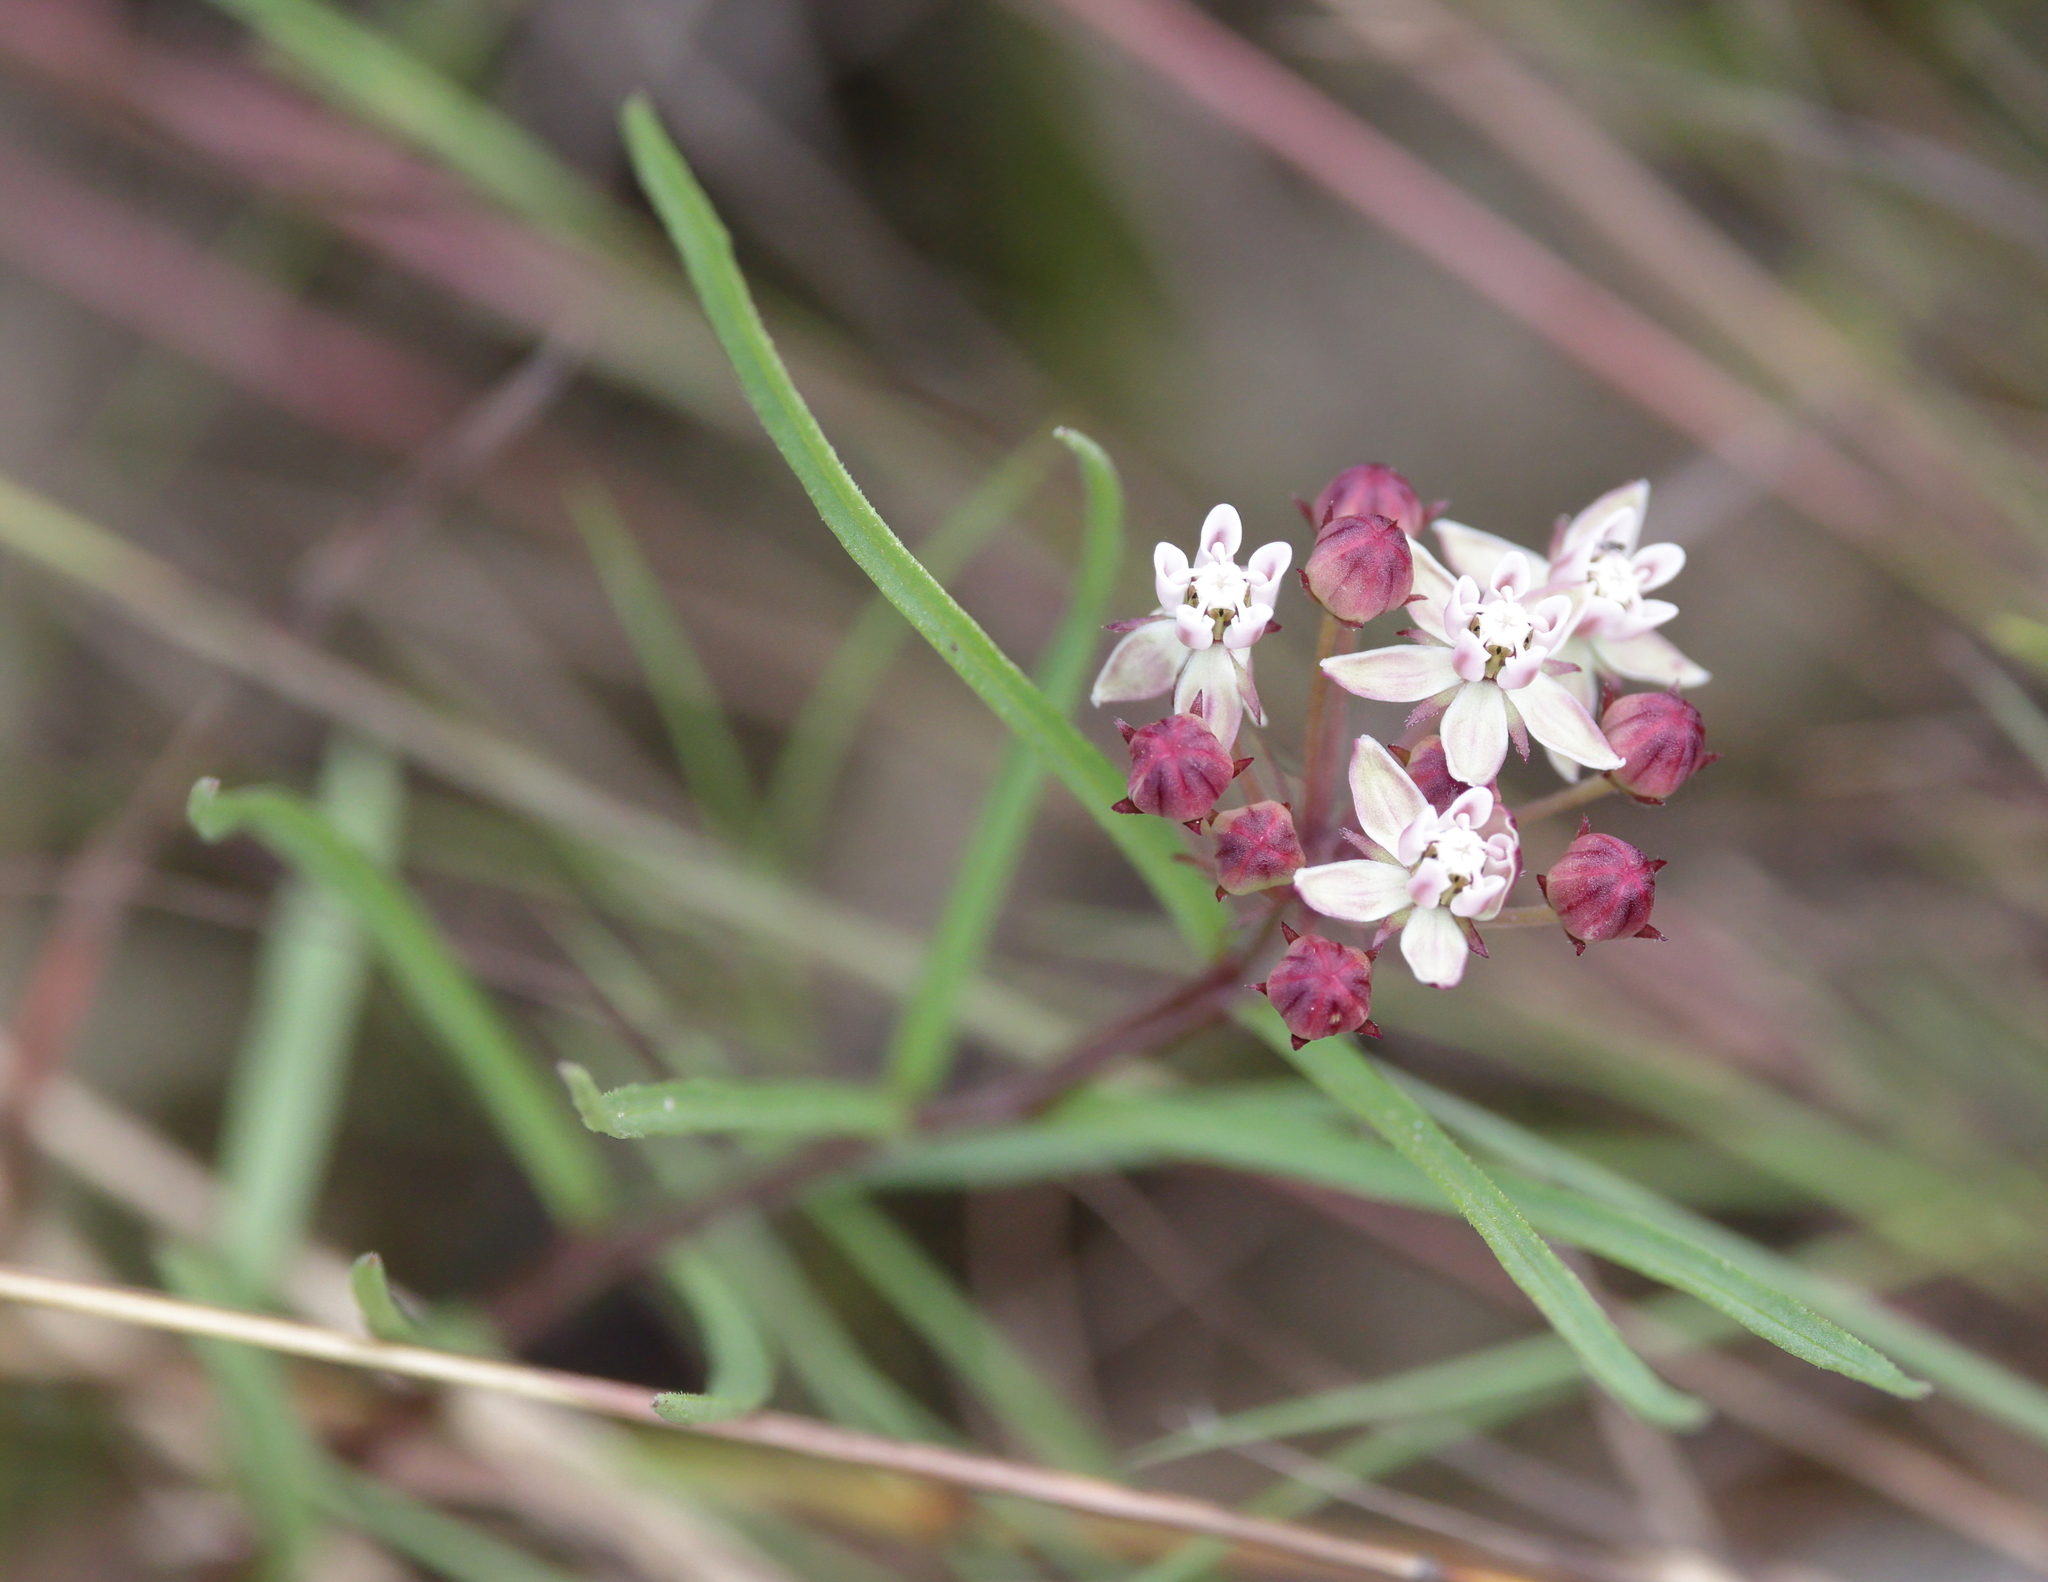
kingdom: Plantae
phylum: Tracheophyta
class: Magnoliopsida
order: Gentianales
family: Apocynaceae
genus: Asclepias
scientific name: Asclepias michauxii
